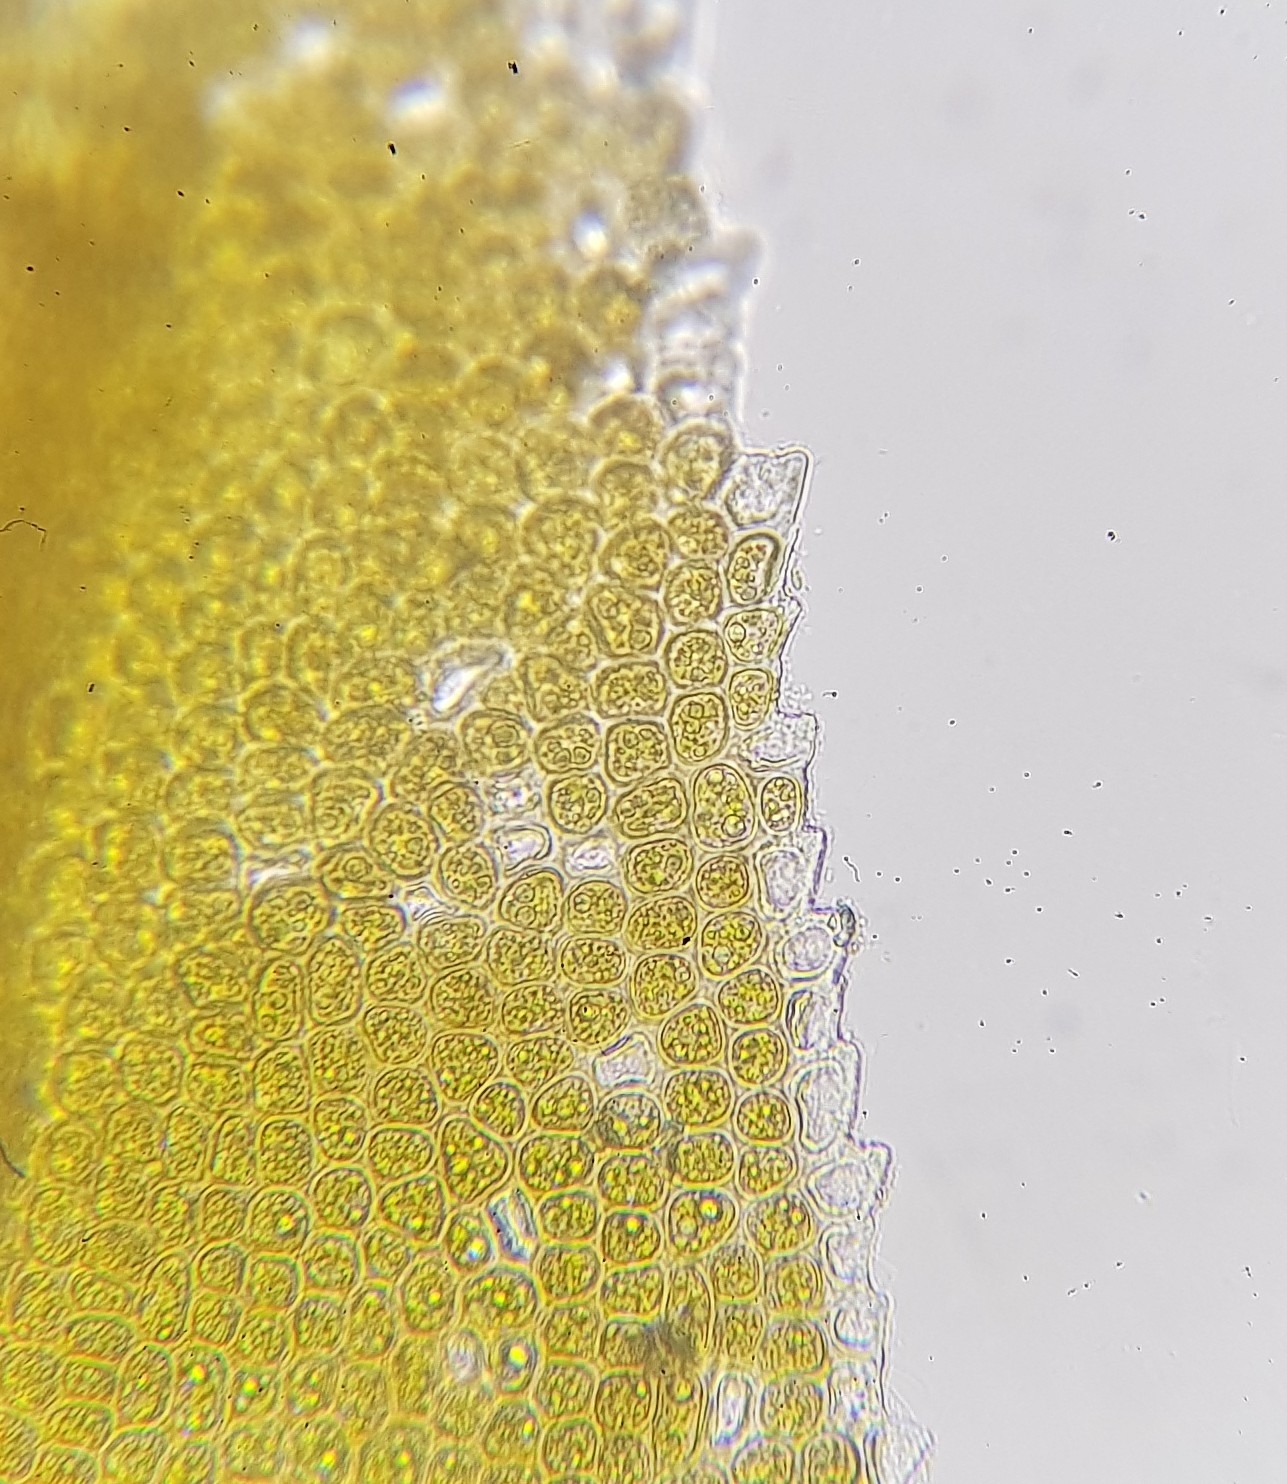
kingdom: Plantae
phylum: Bryophyta
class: Bryopsida
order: Dicranales
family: Aongstroemiaceae
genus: Dichodontium
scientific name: Dichodontium pellucidum
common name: Transparent fork moss
